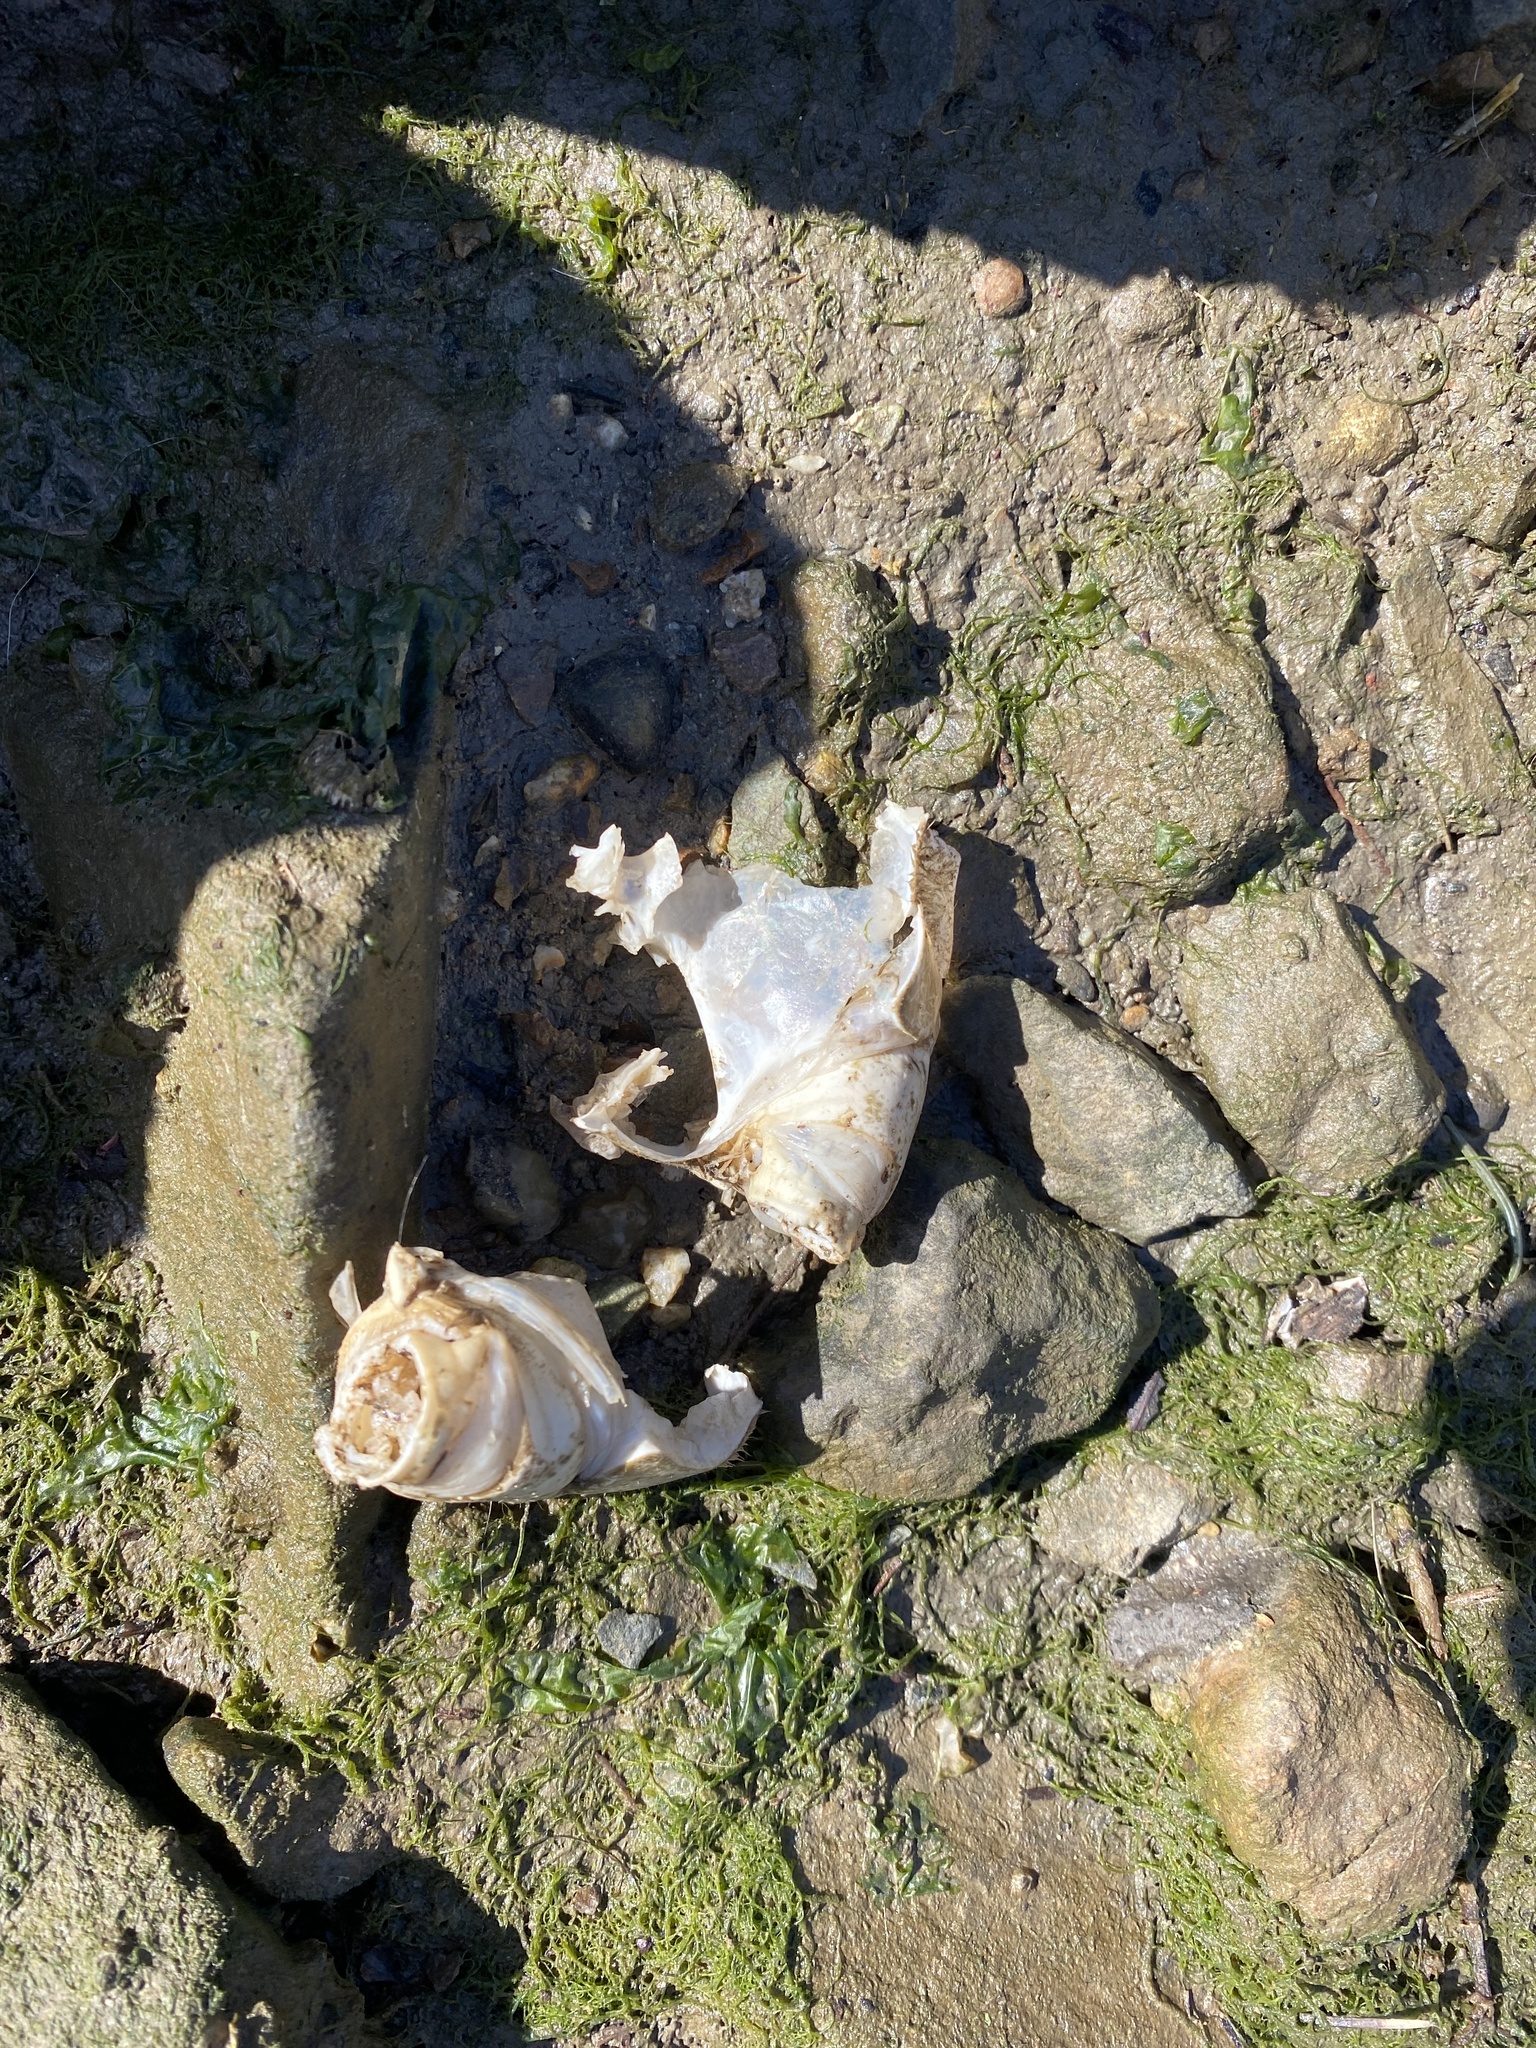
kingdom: Animalia
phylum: Arthropoda
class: Malacostraca
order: Decapoda
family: Cancridae
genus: Metacarcinus
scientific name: Metacarcinus magister
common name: Californian crab
